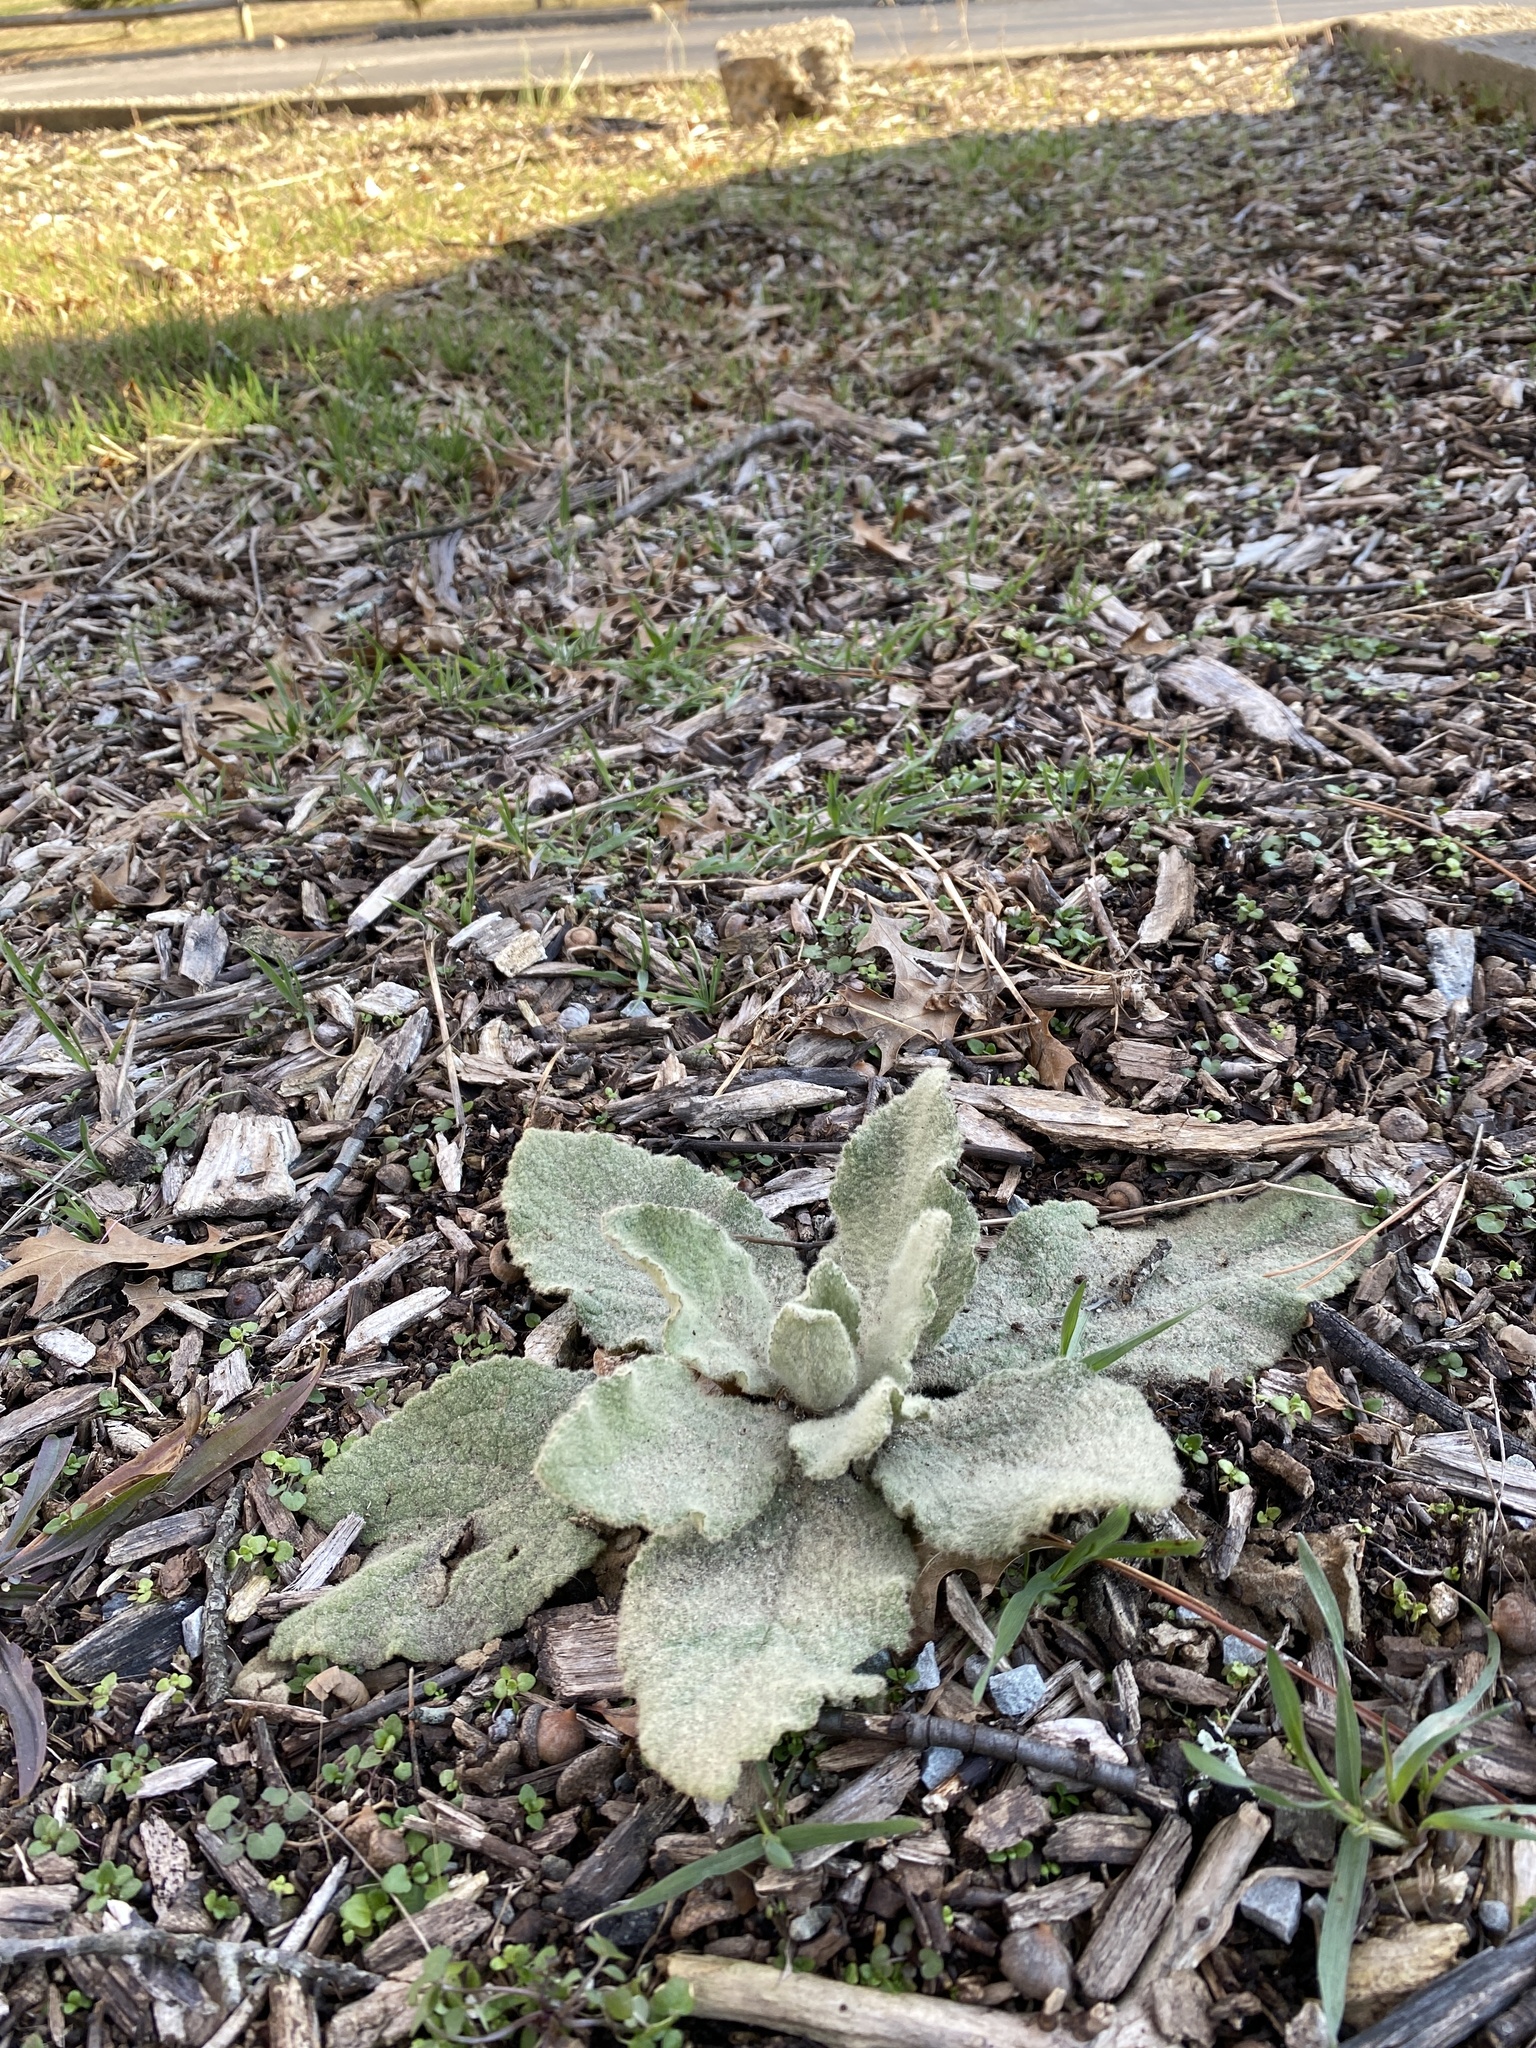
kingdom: Plantae
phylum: Tracheophyta
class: Magnoliopsida
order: Lamiales
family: Scrophulariaceae
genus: Verbascum
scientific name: Verbascum thapsus
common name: Common mullein
